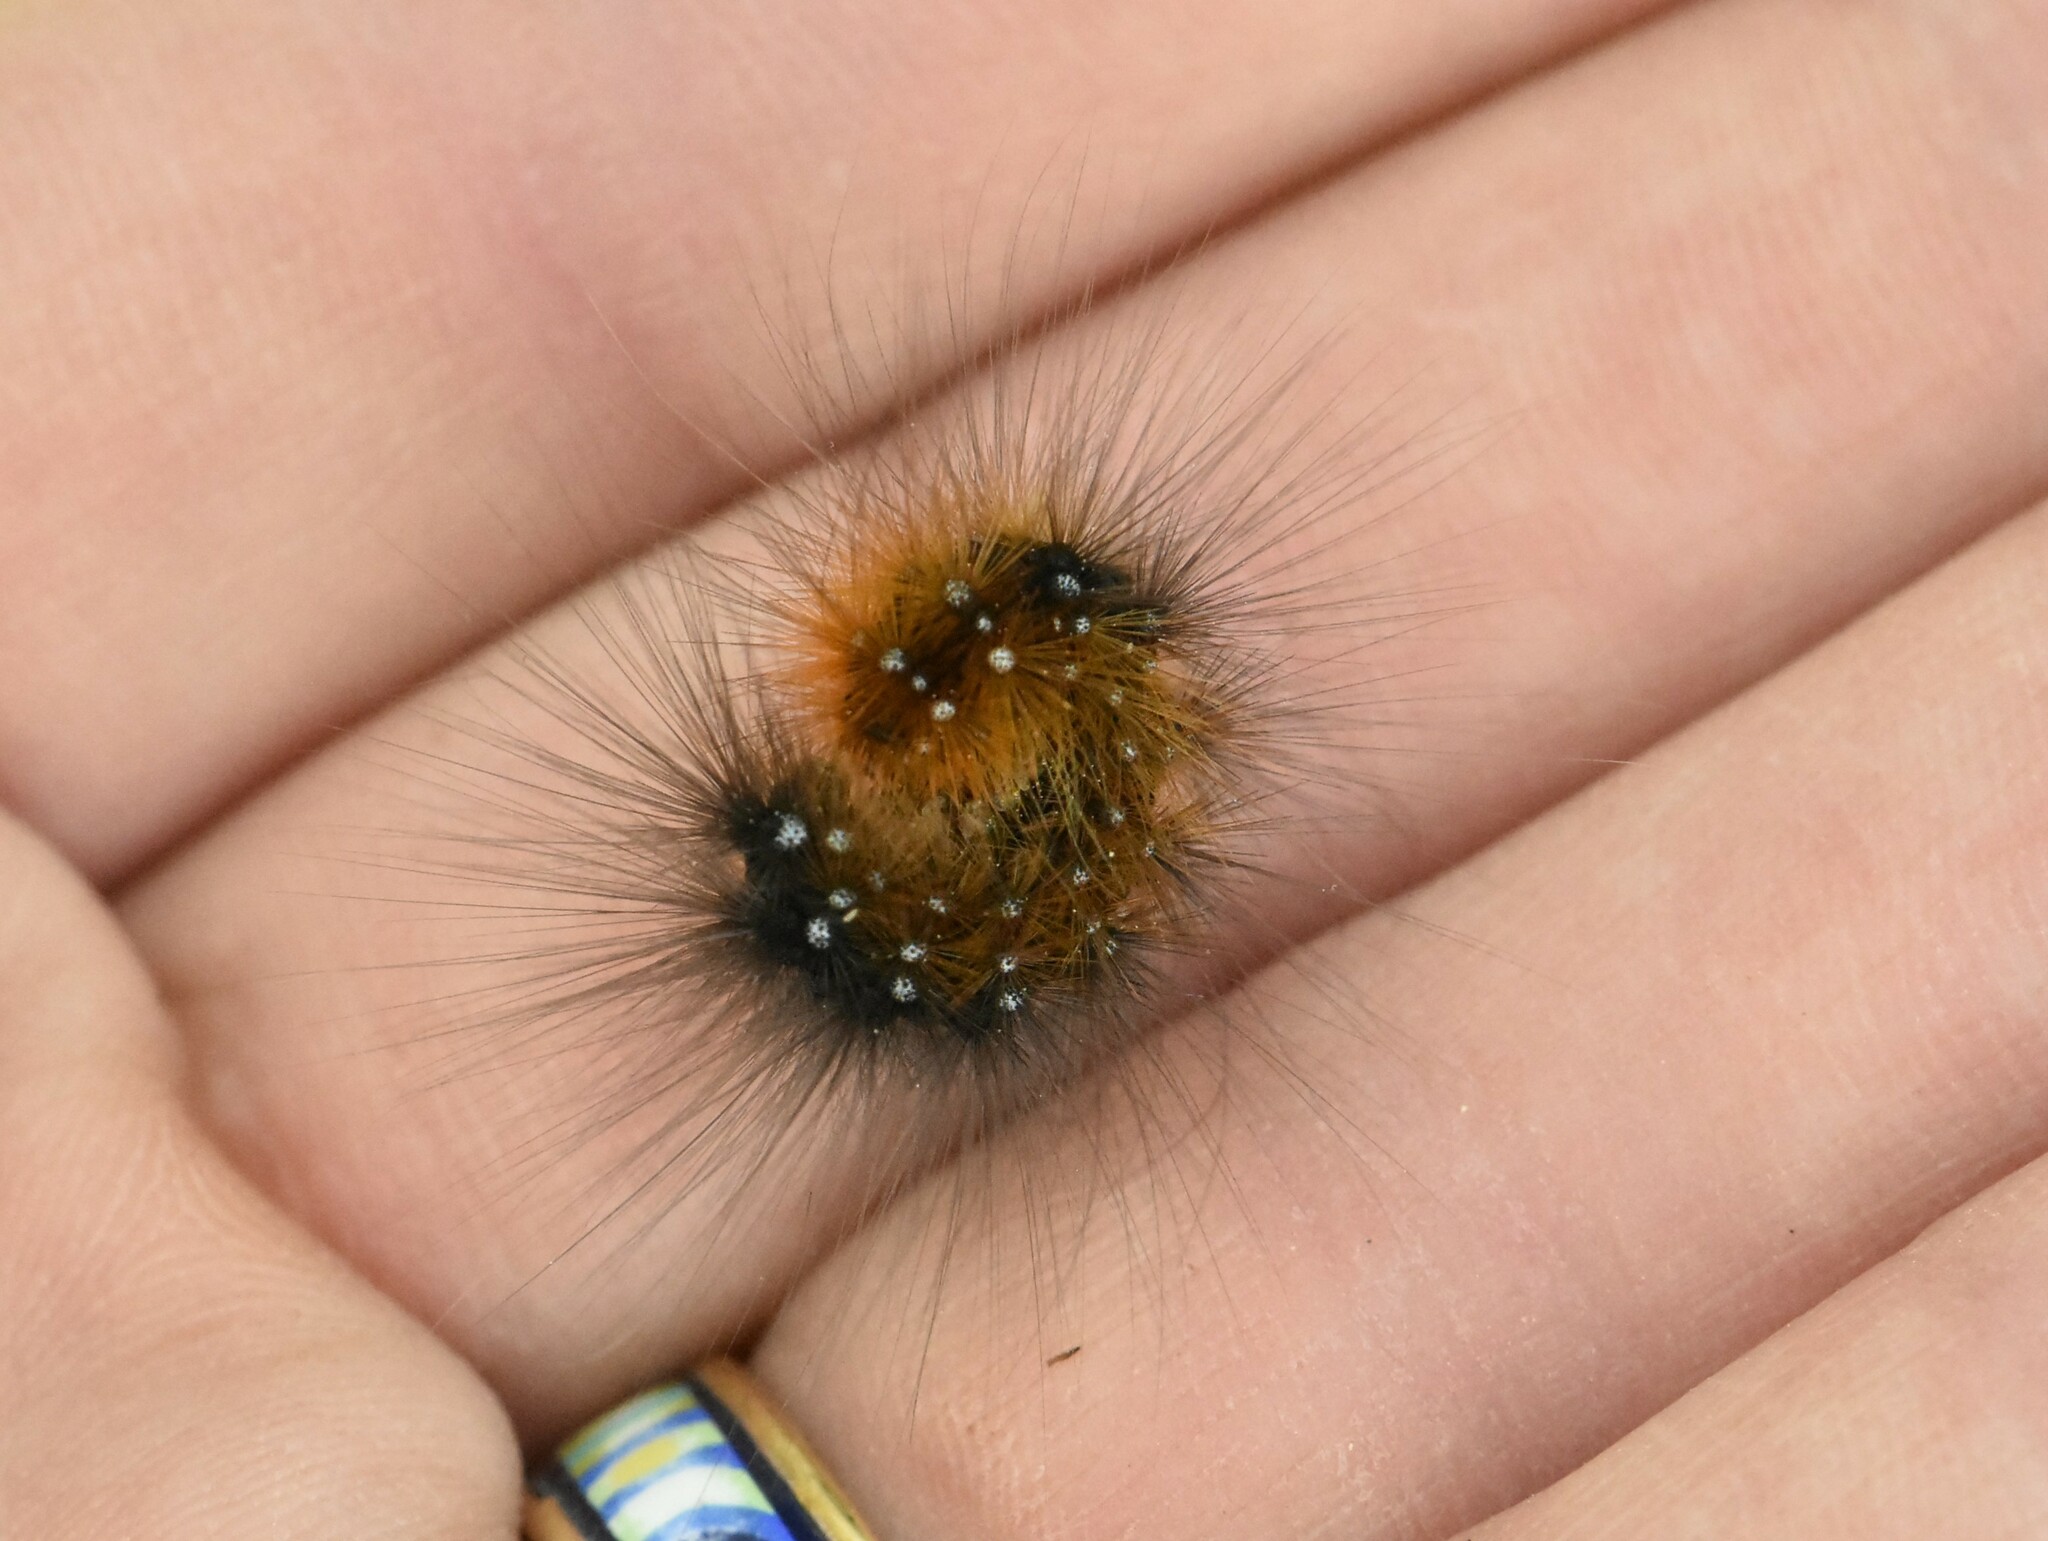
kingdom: Animalia
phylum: Arthropoda
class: Insecta
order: Lepidoptera
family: Erebidae
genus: Arctia
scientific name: Arctia caja
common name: Garden tiger
